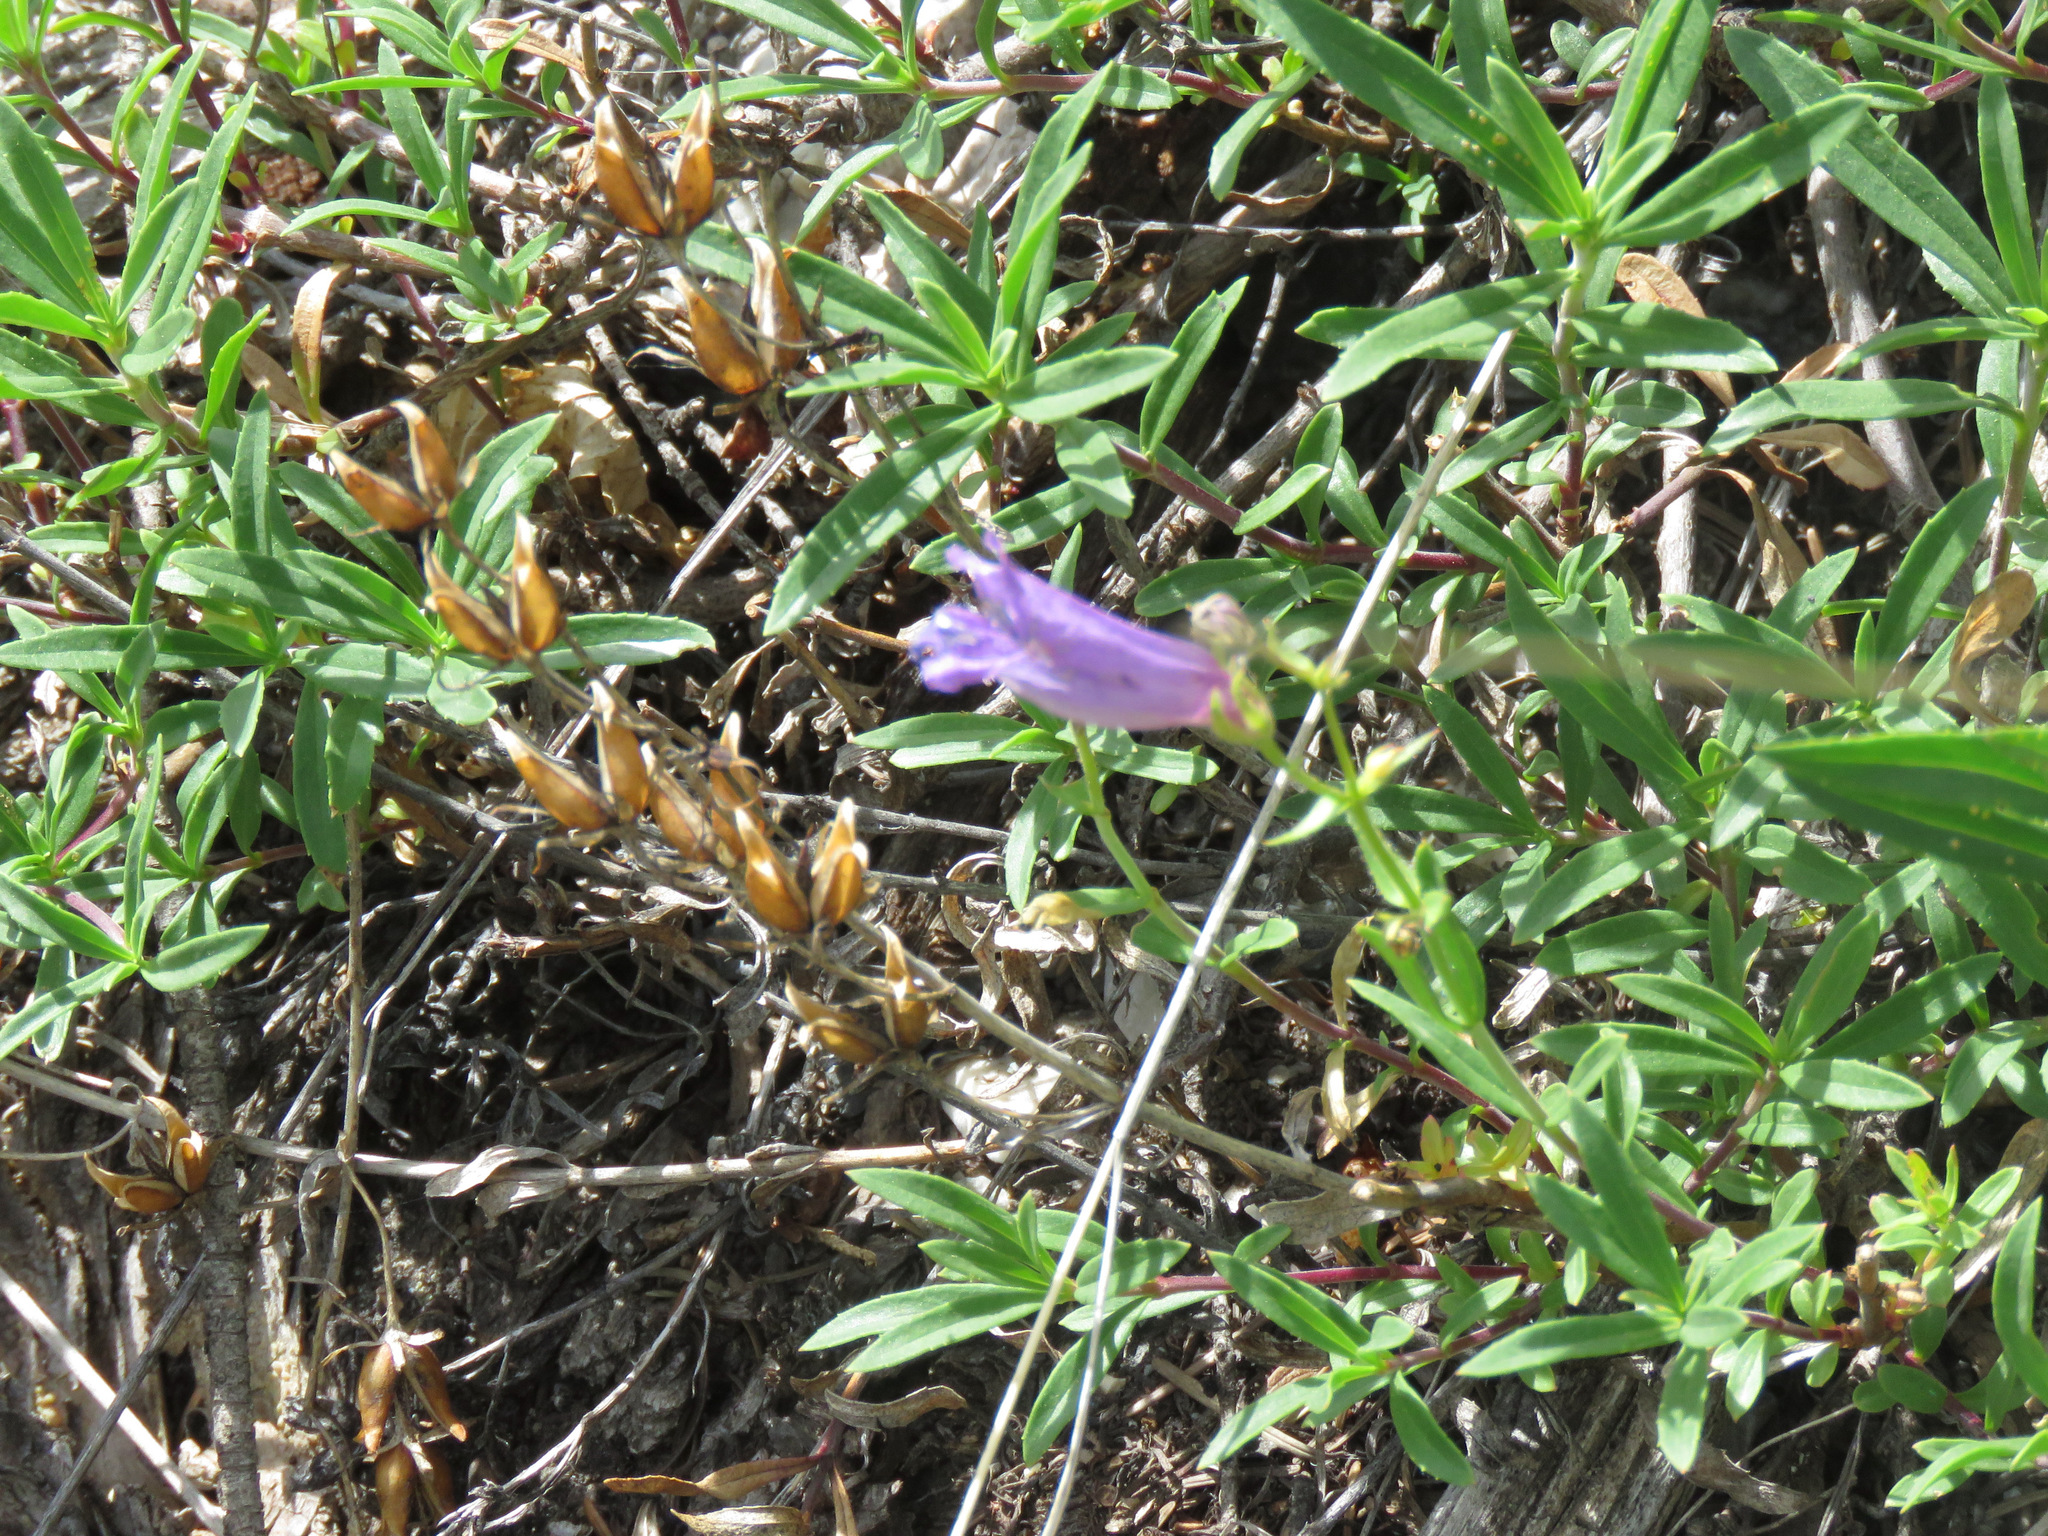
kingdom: Plantae
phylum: Tracheophyta
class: Magnoliopsida
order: Lamiales
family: Plantaginaceae
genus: Penstemon
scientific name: Penstemon fruticosus
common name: Bush penstemon
